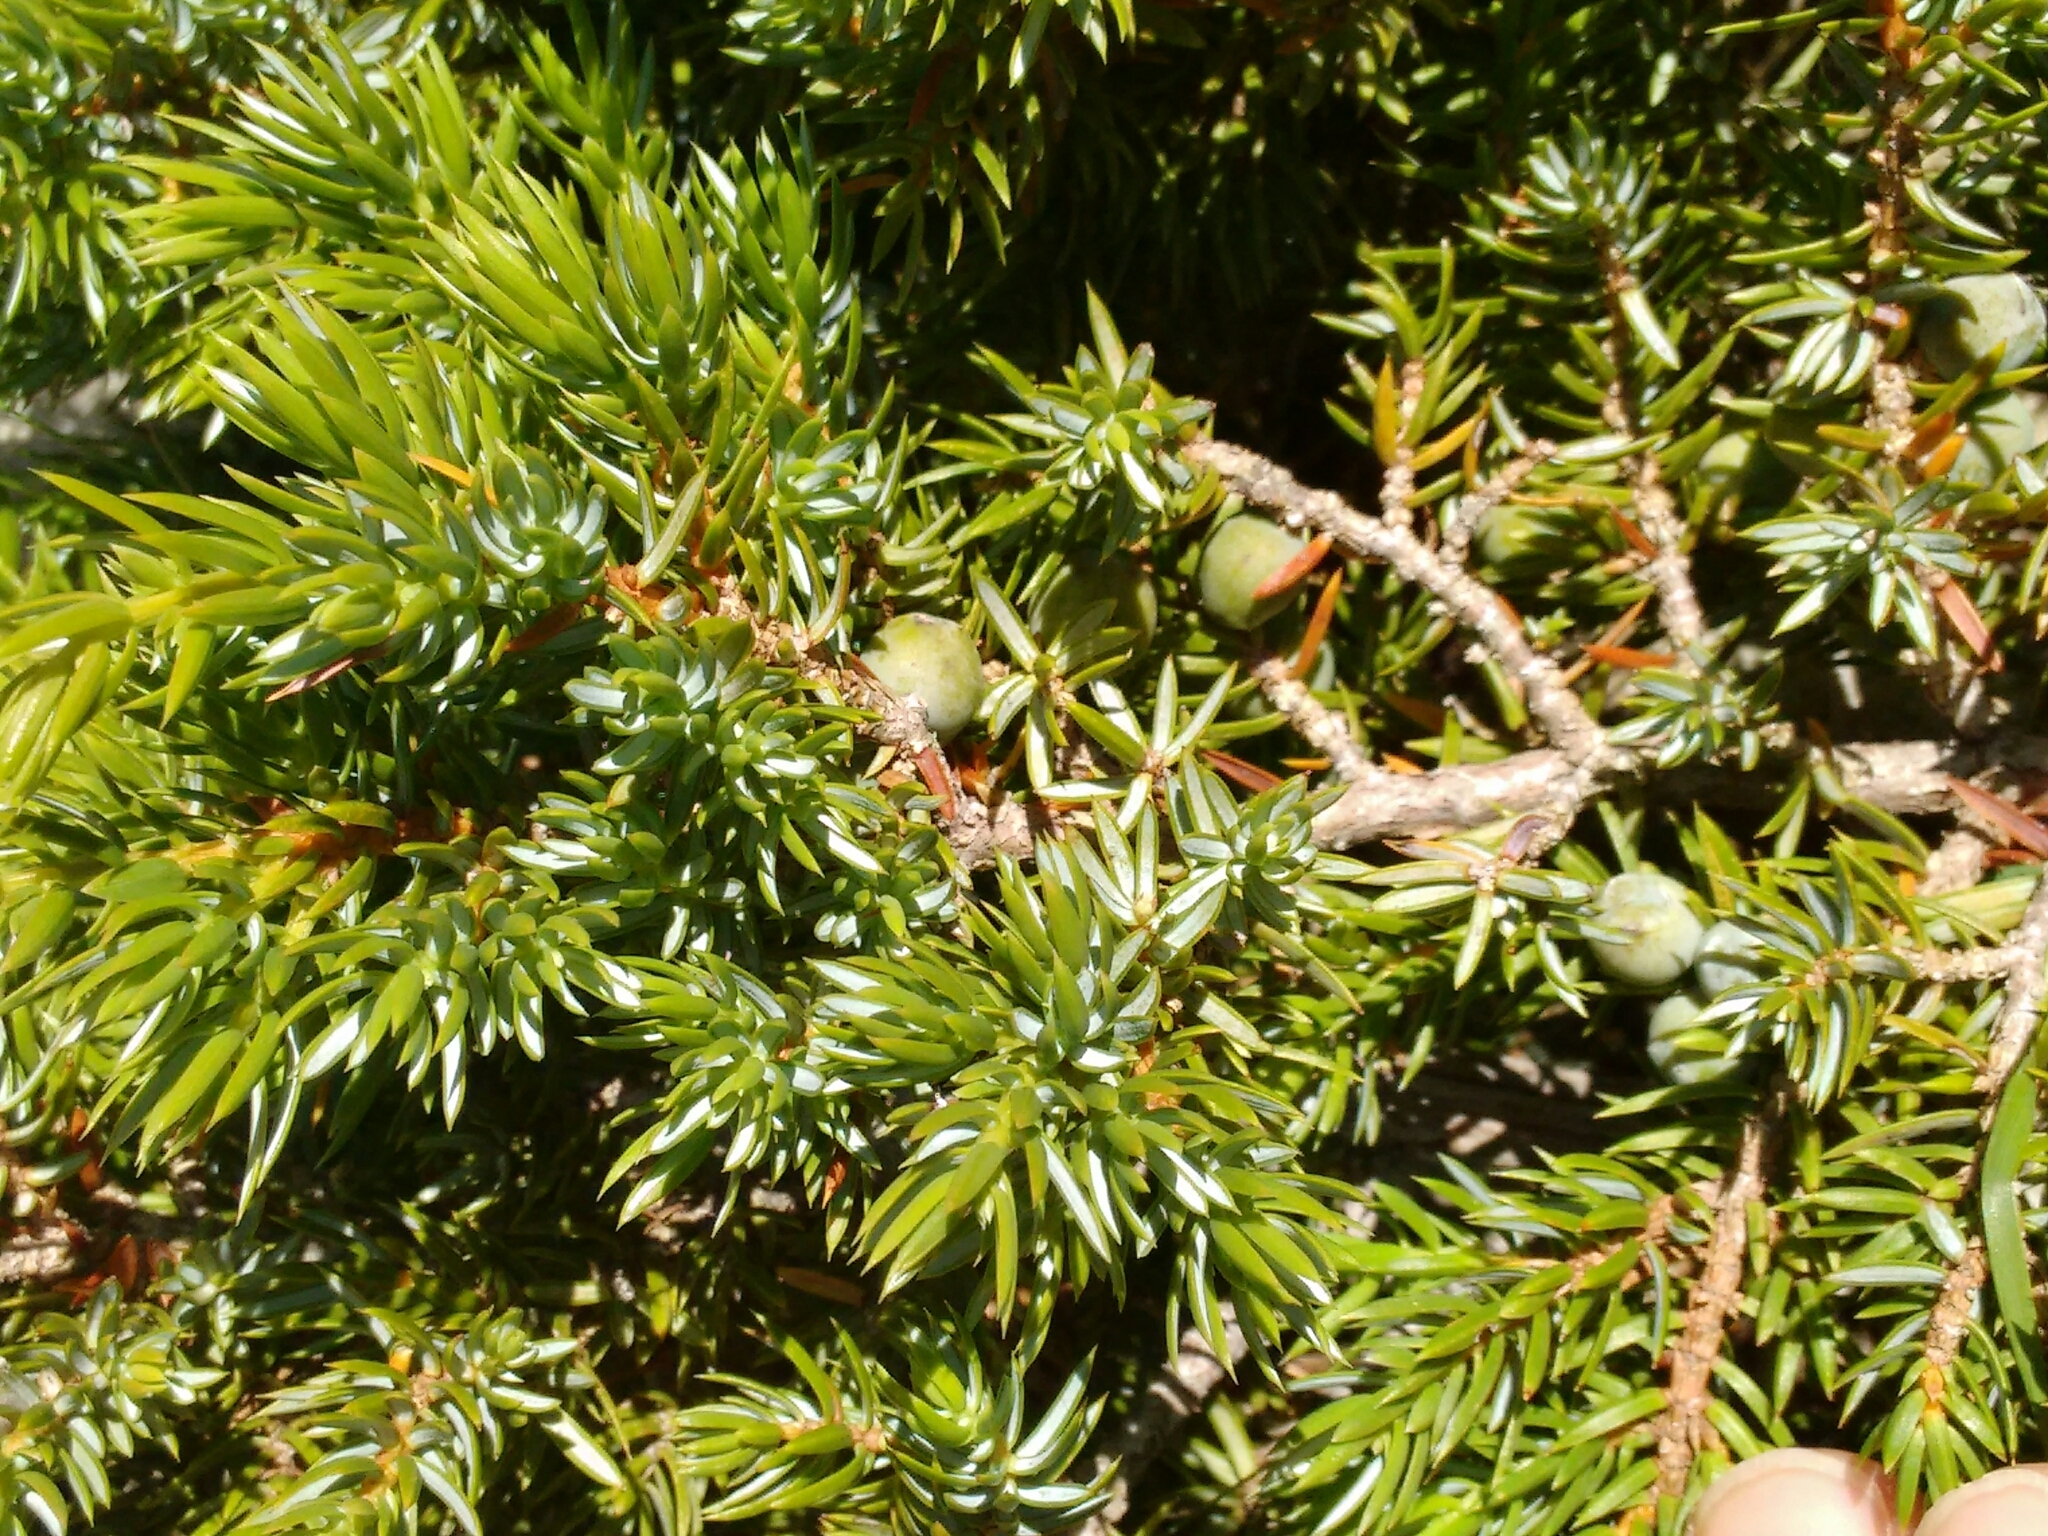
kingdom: Plantae
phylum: Tracheophyta
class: Pinopsida
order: Pinales
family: Cupressaceae
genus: Juniperus
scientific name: Juniperus communis
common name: Common juniper
